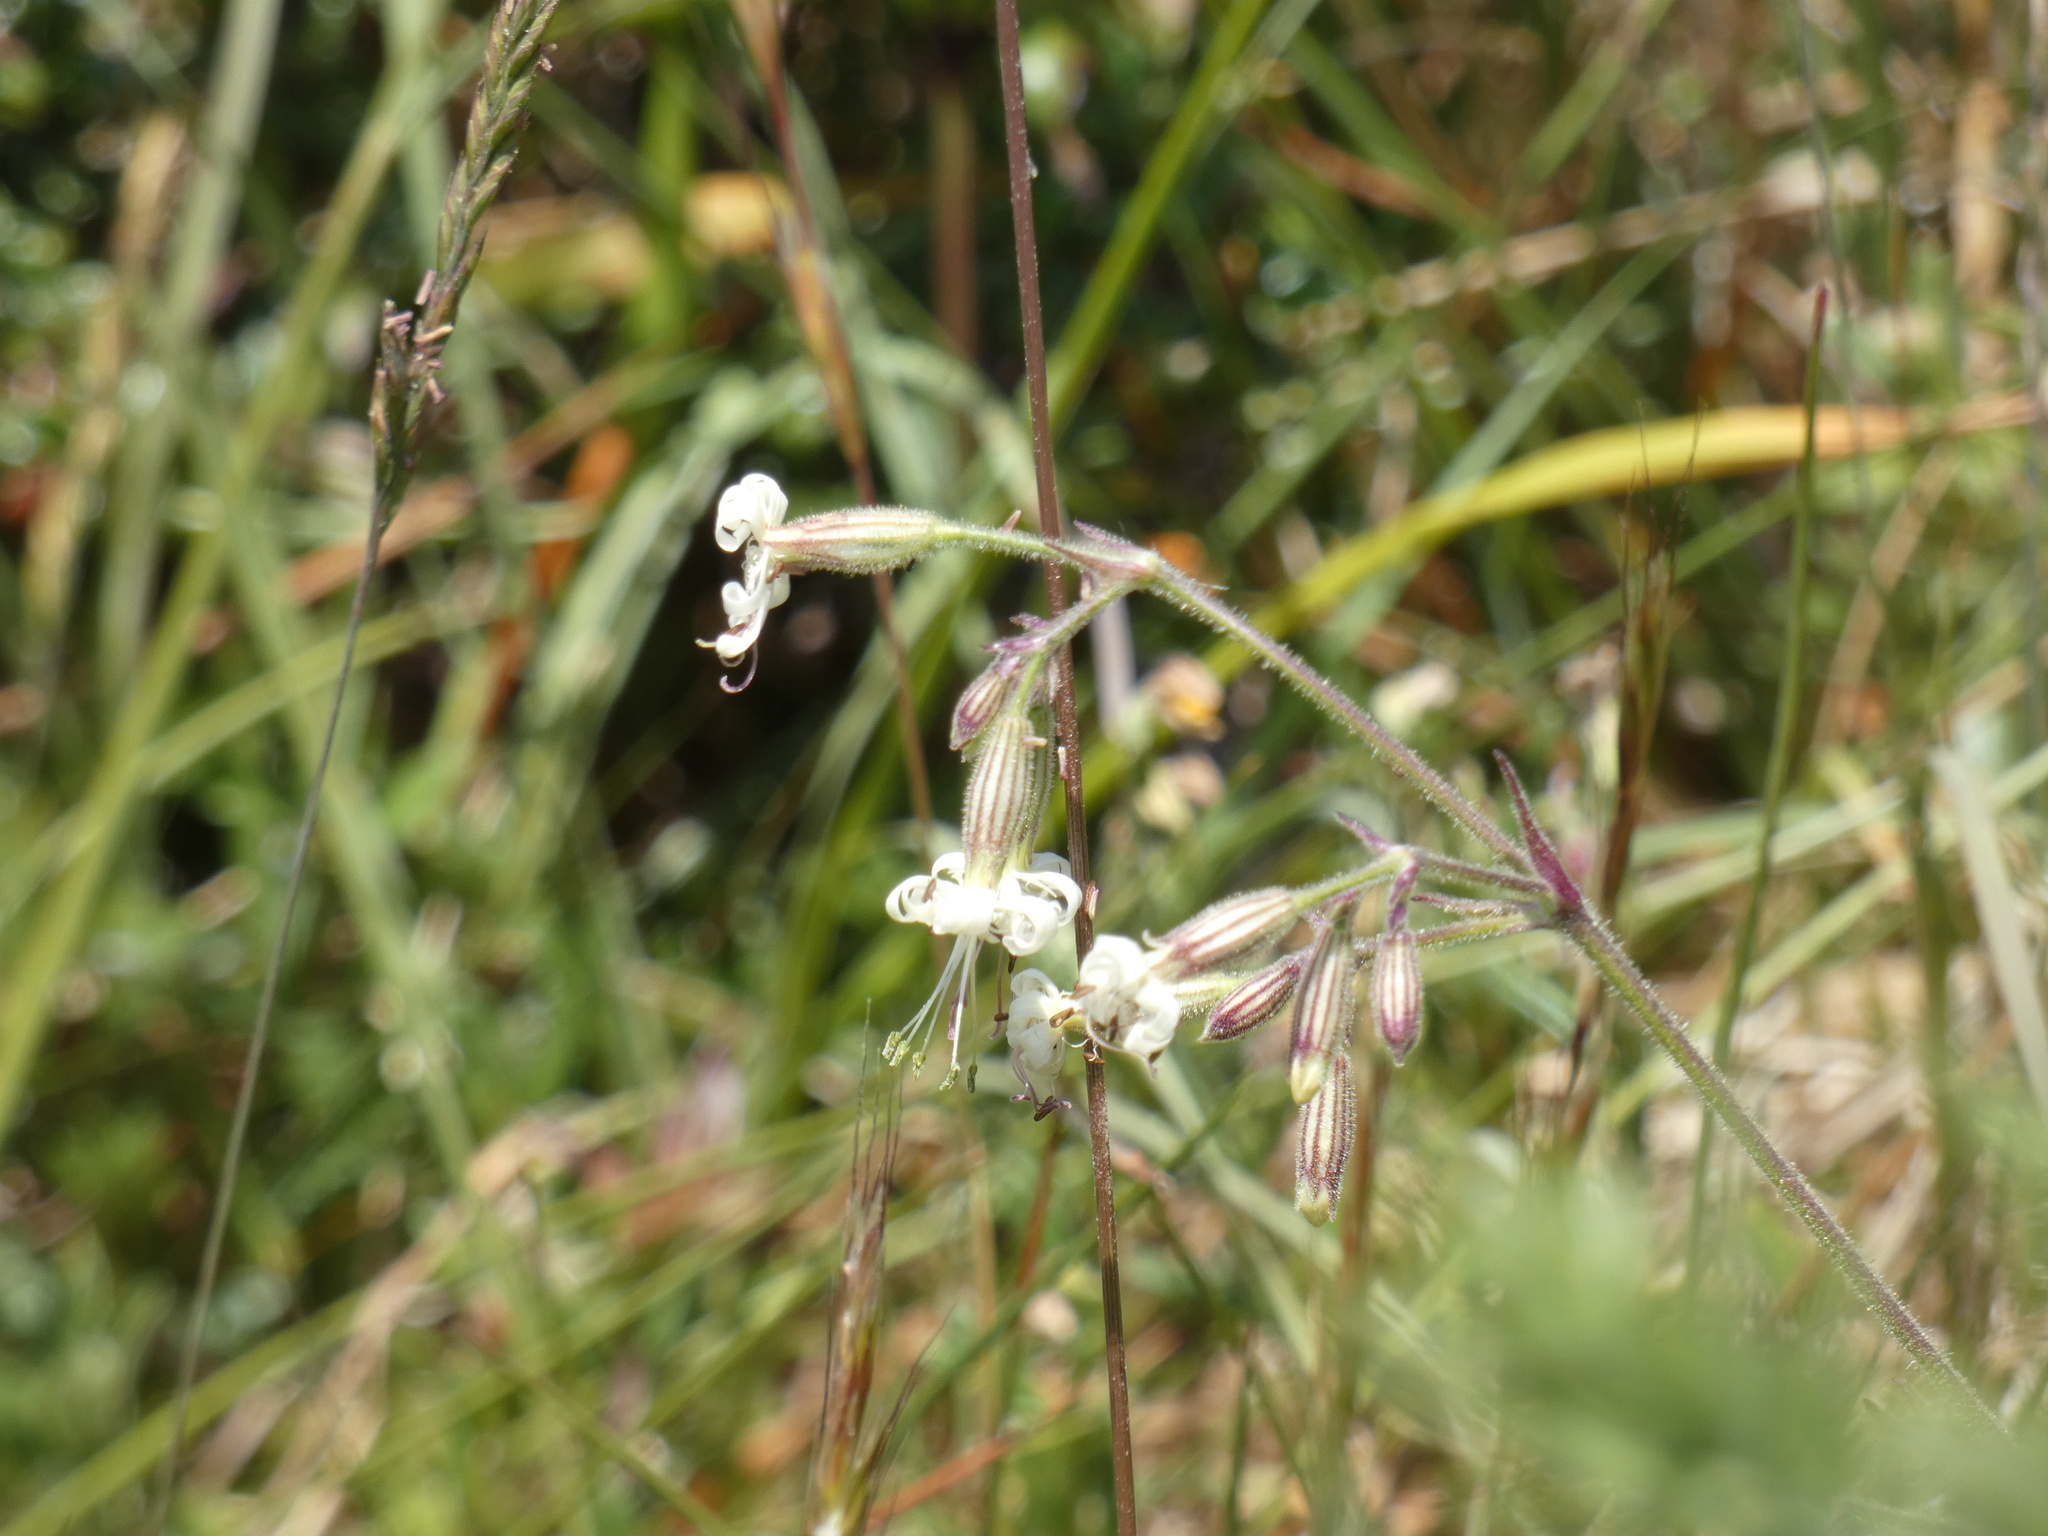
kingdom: Plantae
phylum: Tracheophyta
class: Magnoliopsida
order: Caryophyllales
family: Caryophyllaceae
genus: Silene
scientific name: Silene nutans
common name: Nottingham catchfly
